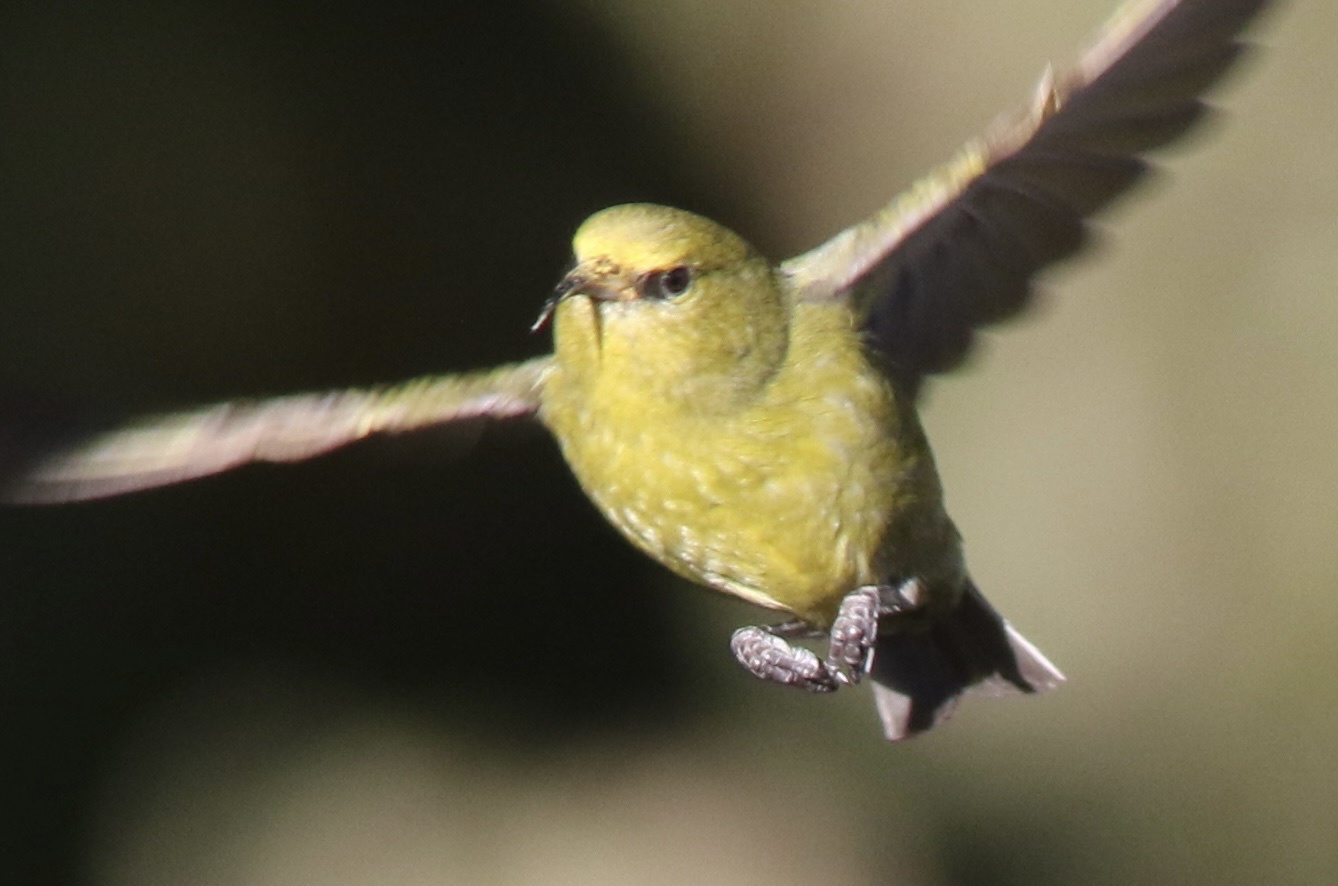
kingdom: Animalia
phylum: Chordata
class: Aves
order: Passeriformes
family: Fringillidae
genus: Chlorodrepanis
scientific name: Chlorodrepanis virens
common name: Hawaii amakihi
